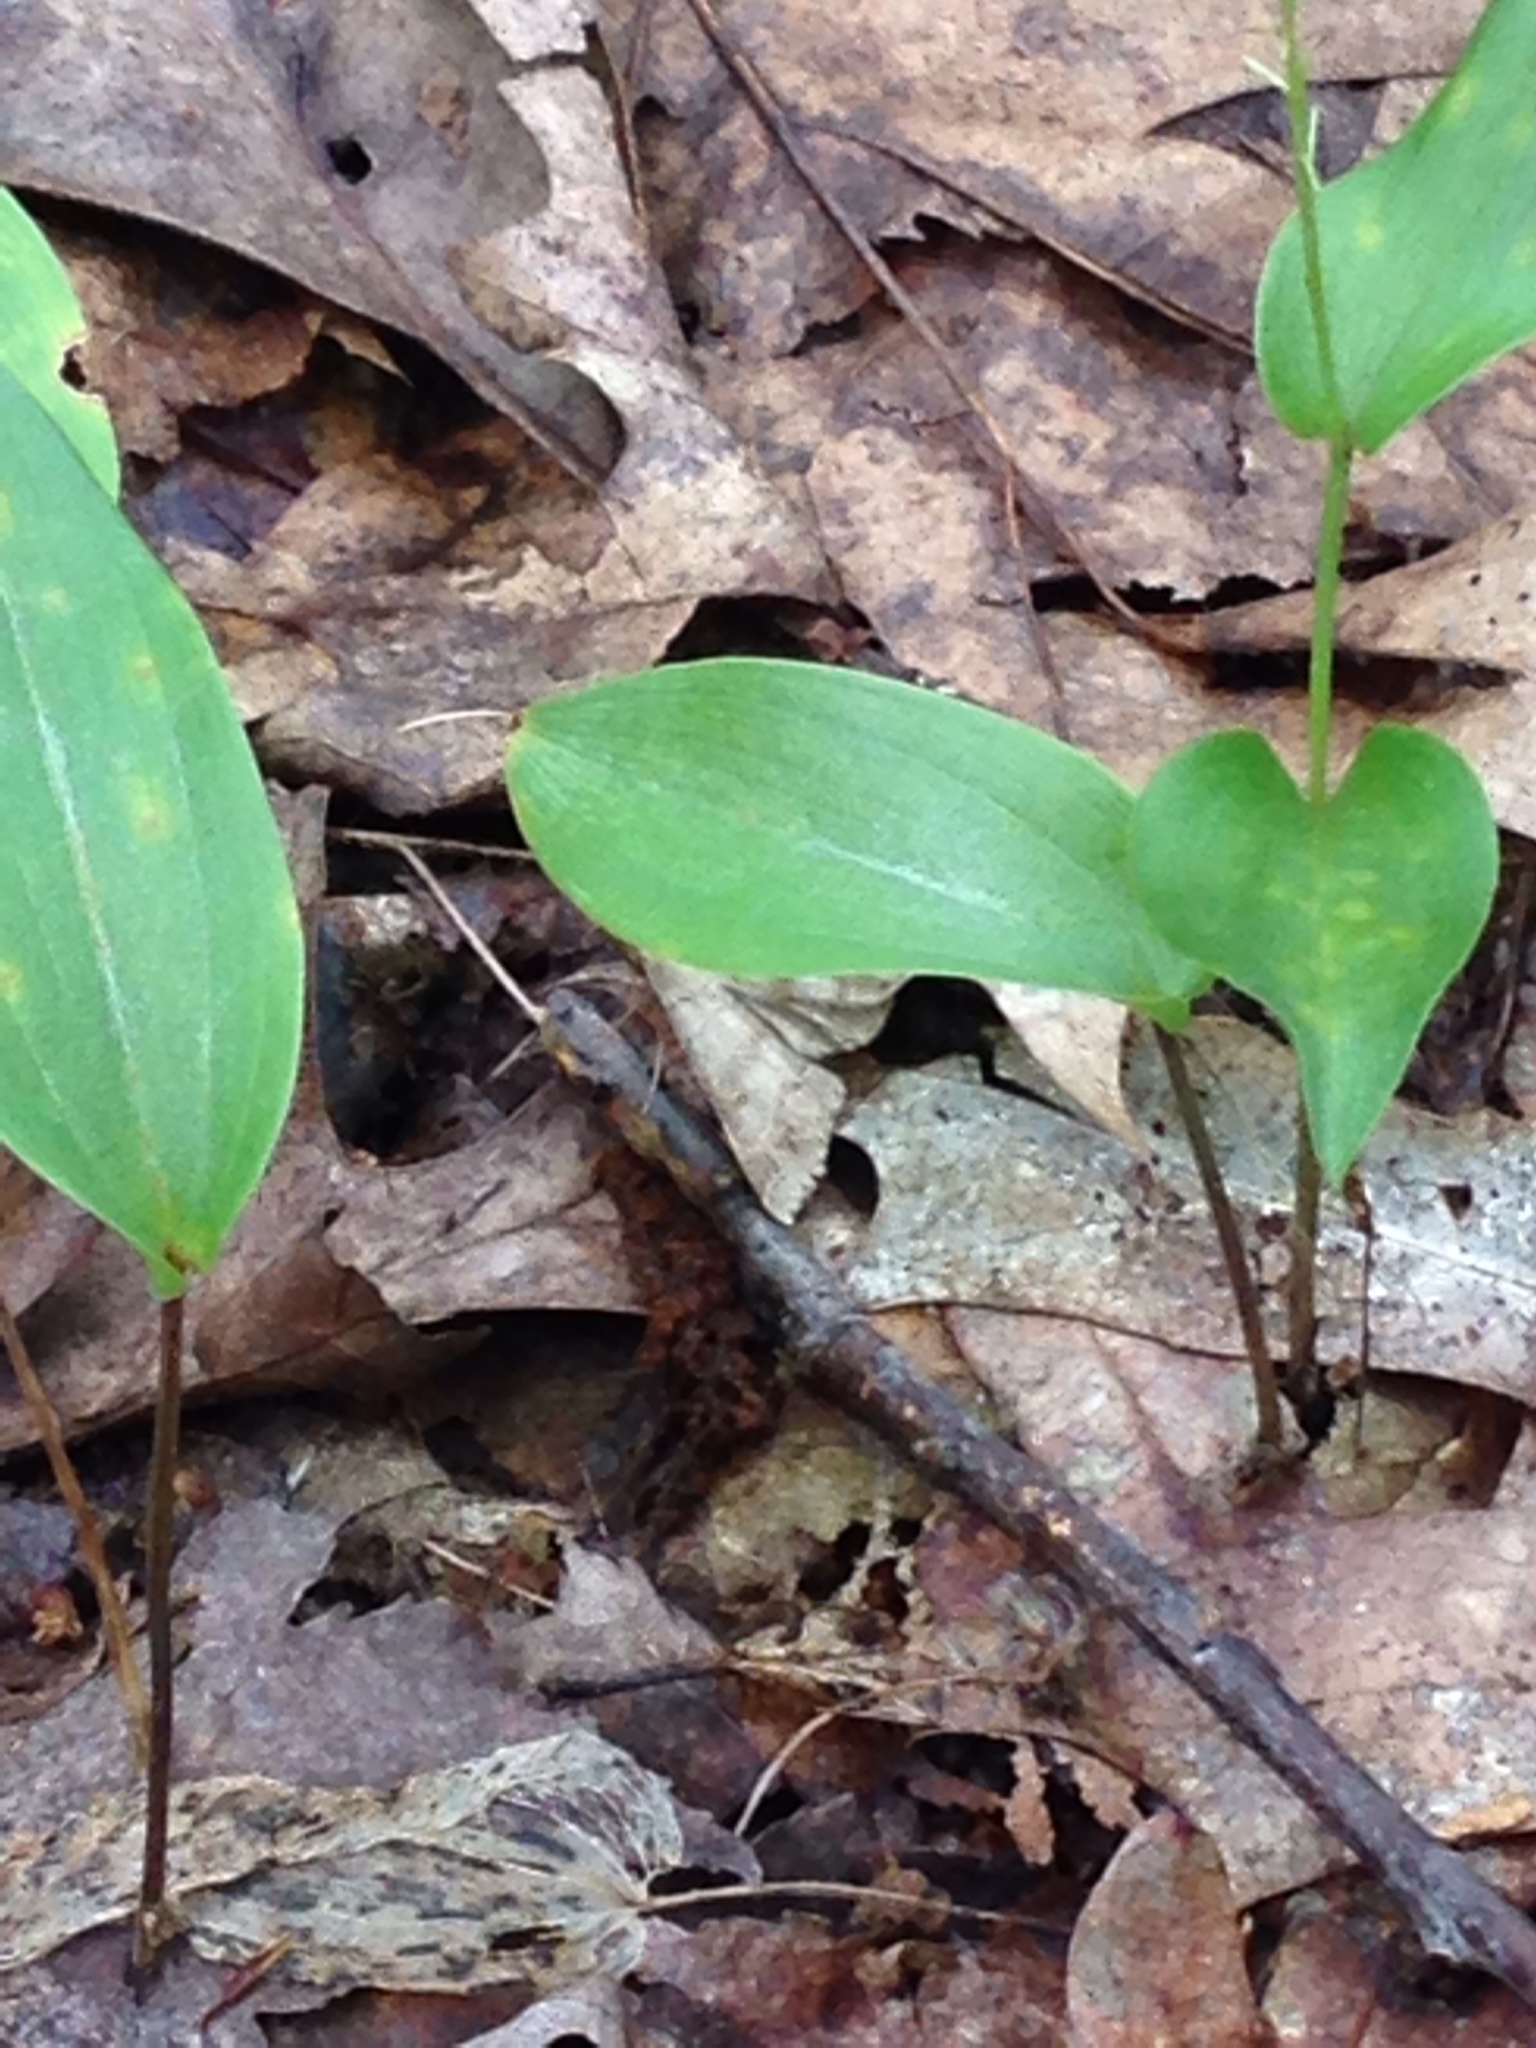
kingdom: Animalia
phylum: Arthropoda
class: Insecta
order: Lepidoptera
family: Erebidae
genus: Renia
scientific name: Renia flavipunctalis
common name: Yellow-spotted renia moth
